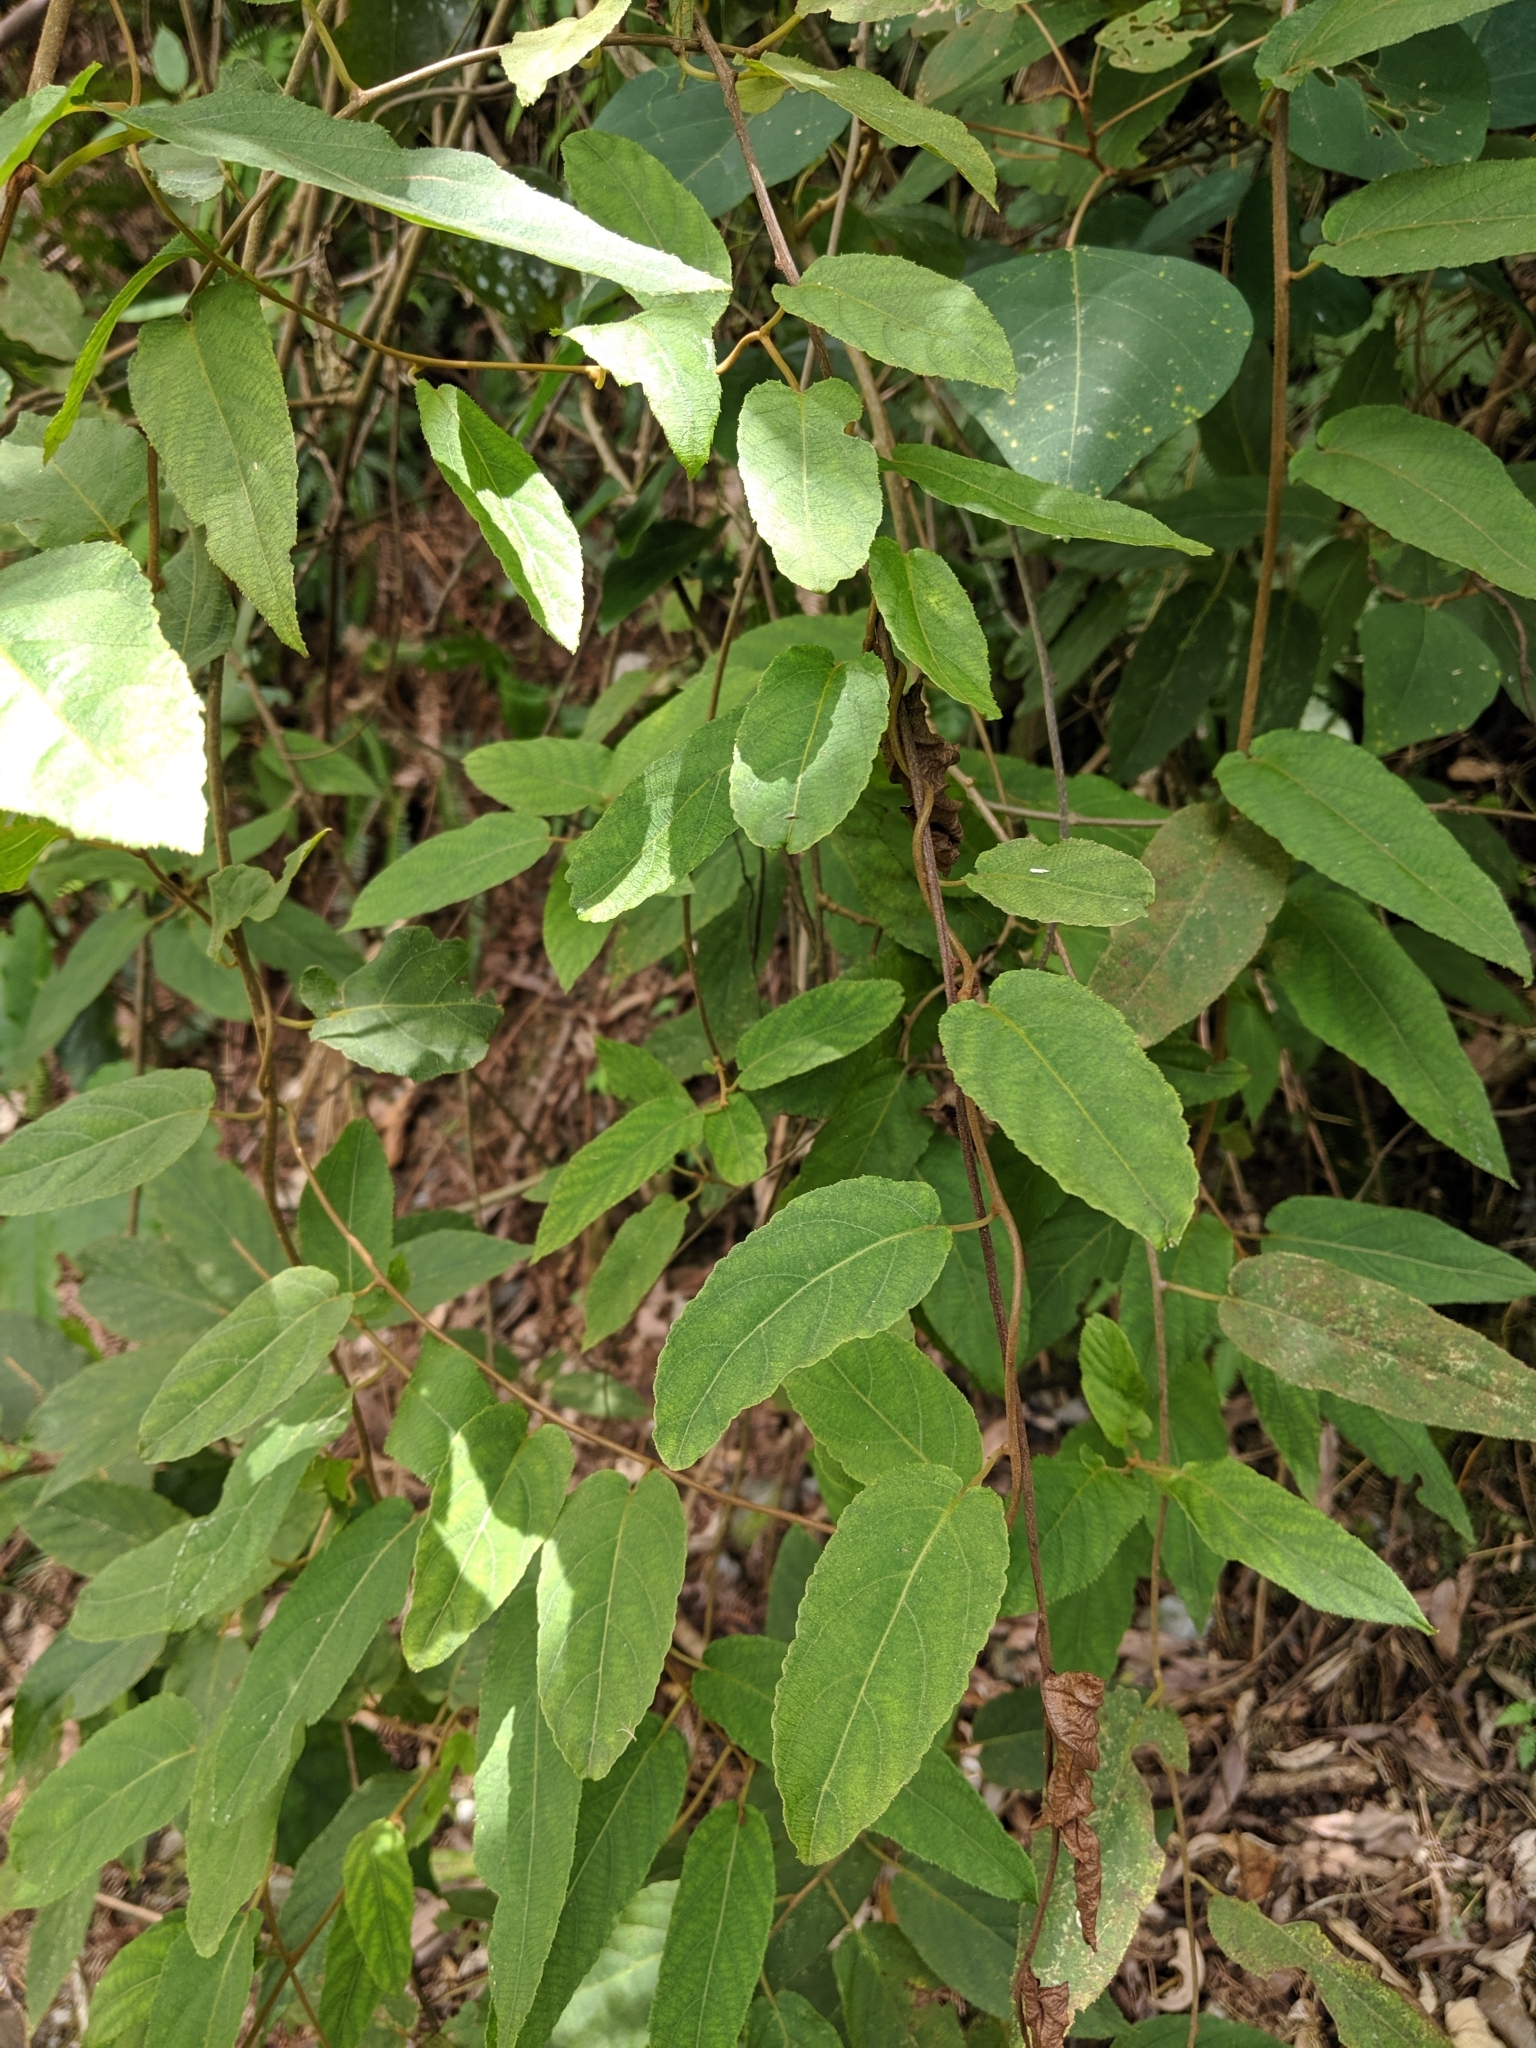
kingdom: Plantae
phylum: Tracheophyta
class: Magnoliopsida
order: Ericales
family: Actinidiaceae
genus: Actinidia
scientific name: Actinidia rufa
